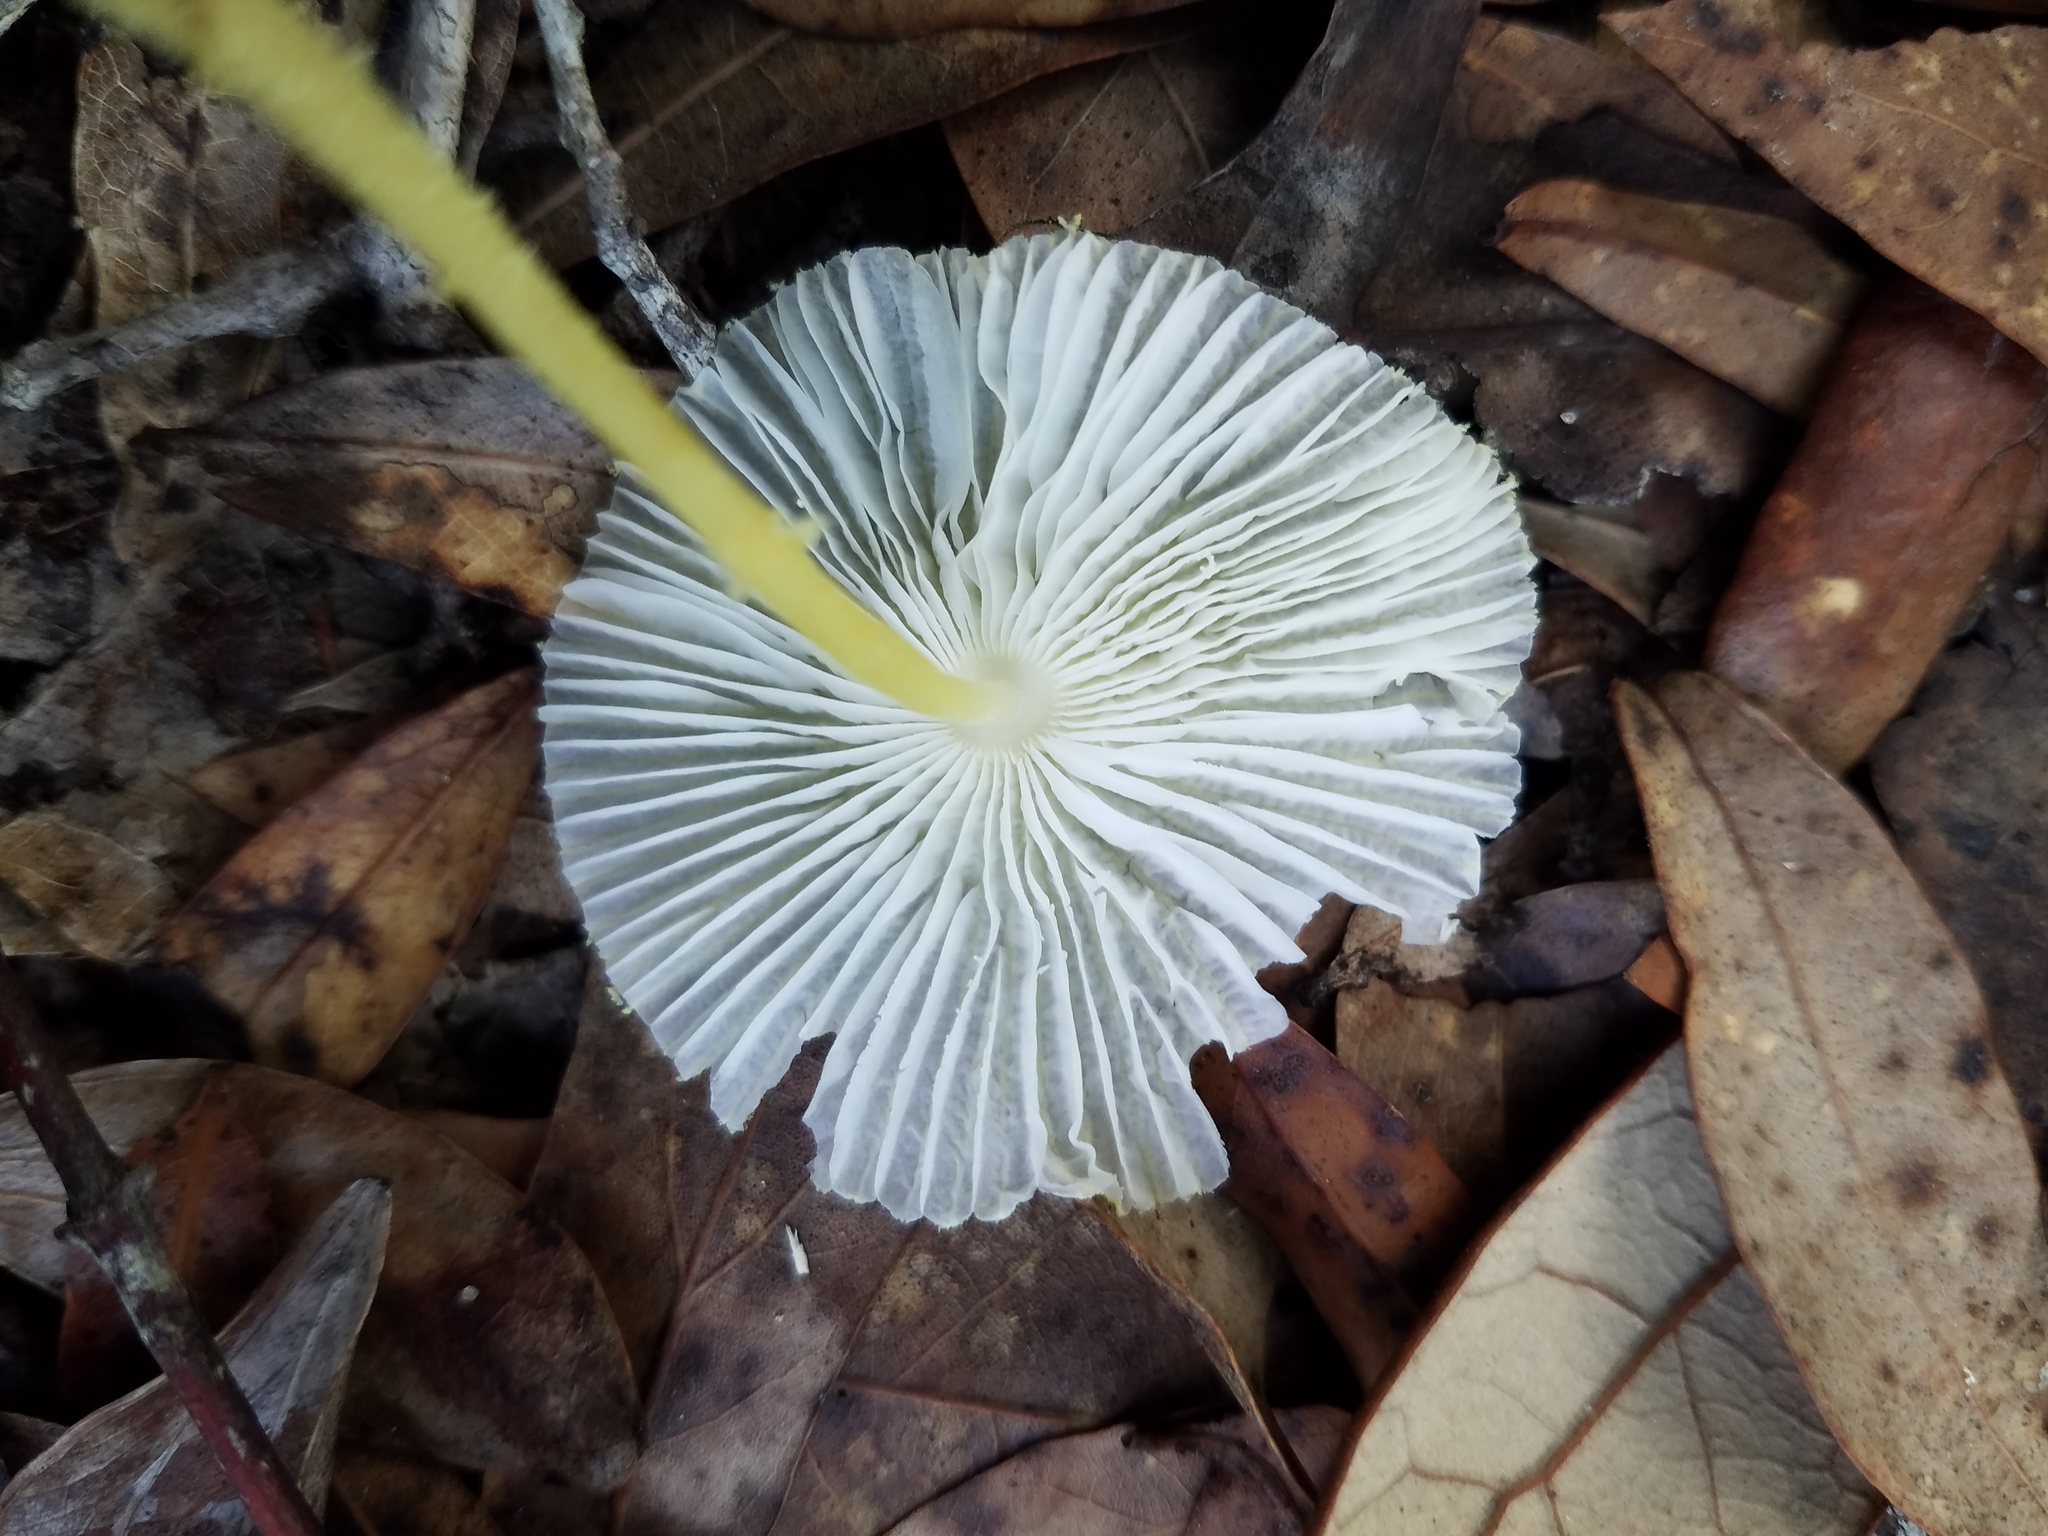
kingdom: Fungi
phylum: Basidiomycota
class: Agaricomycetes
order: Agaricales
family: Agaricaceae
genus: Leucocoprinus
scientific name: Leucocoprinus fragilissimus
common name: Fragile dapperling
